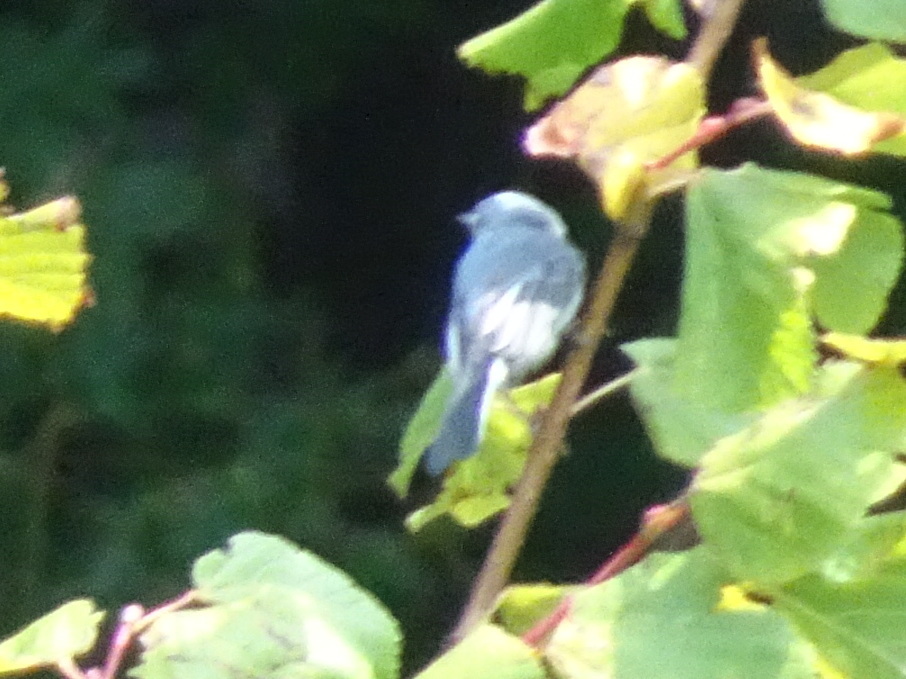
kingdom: Animalia
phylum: Chordata
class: Aves
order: Passeriformes
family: Polioptilidae
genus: Polioptila
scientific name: Polioptila caerulea
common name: Blue-gray gnatcatcher
